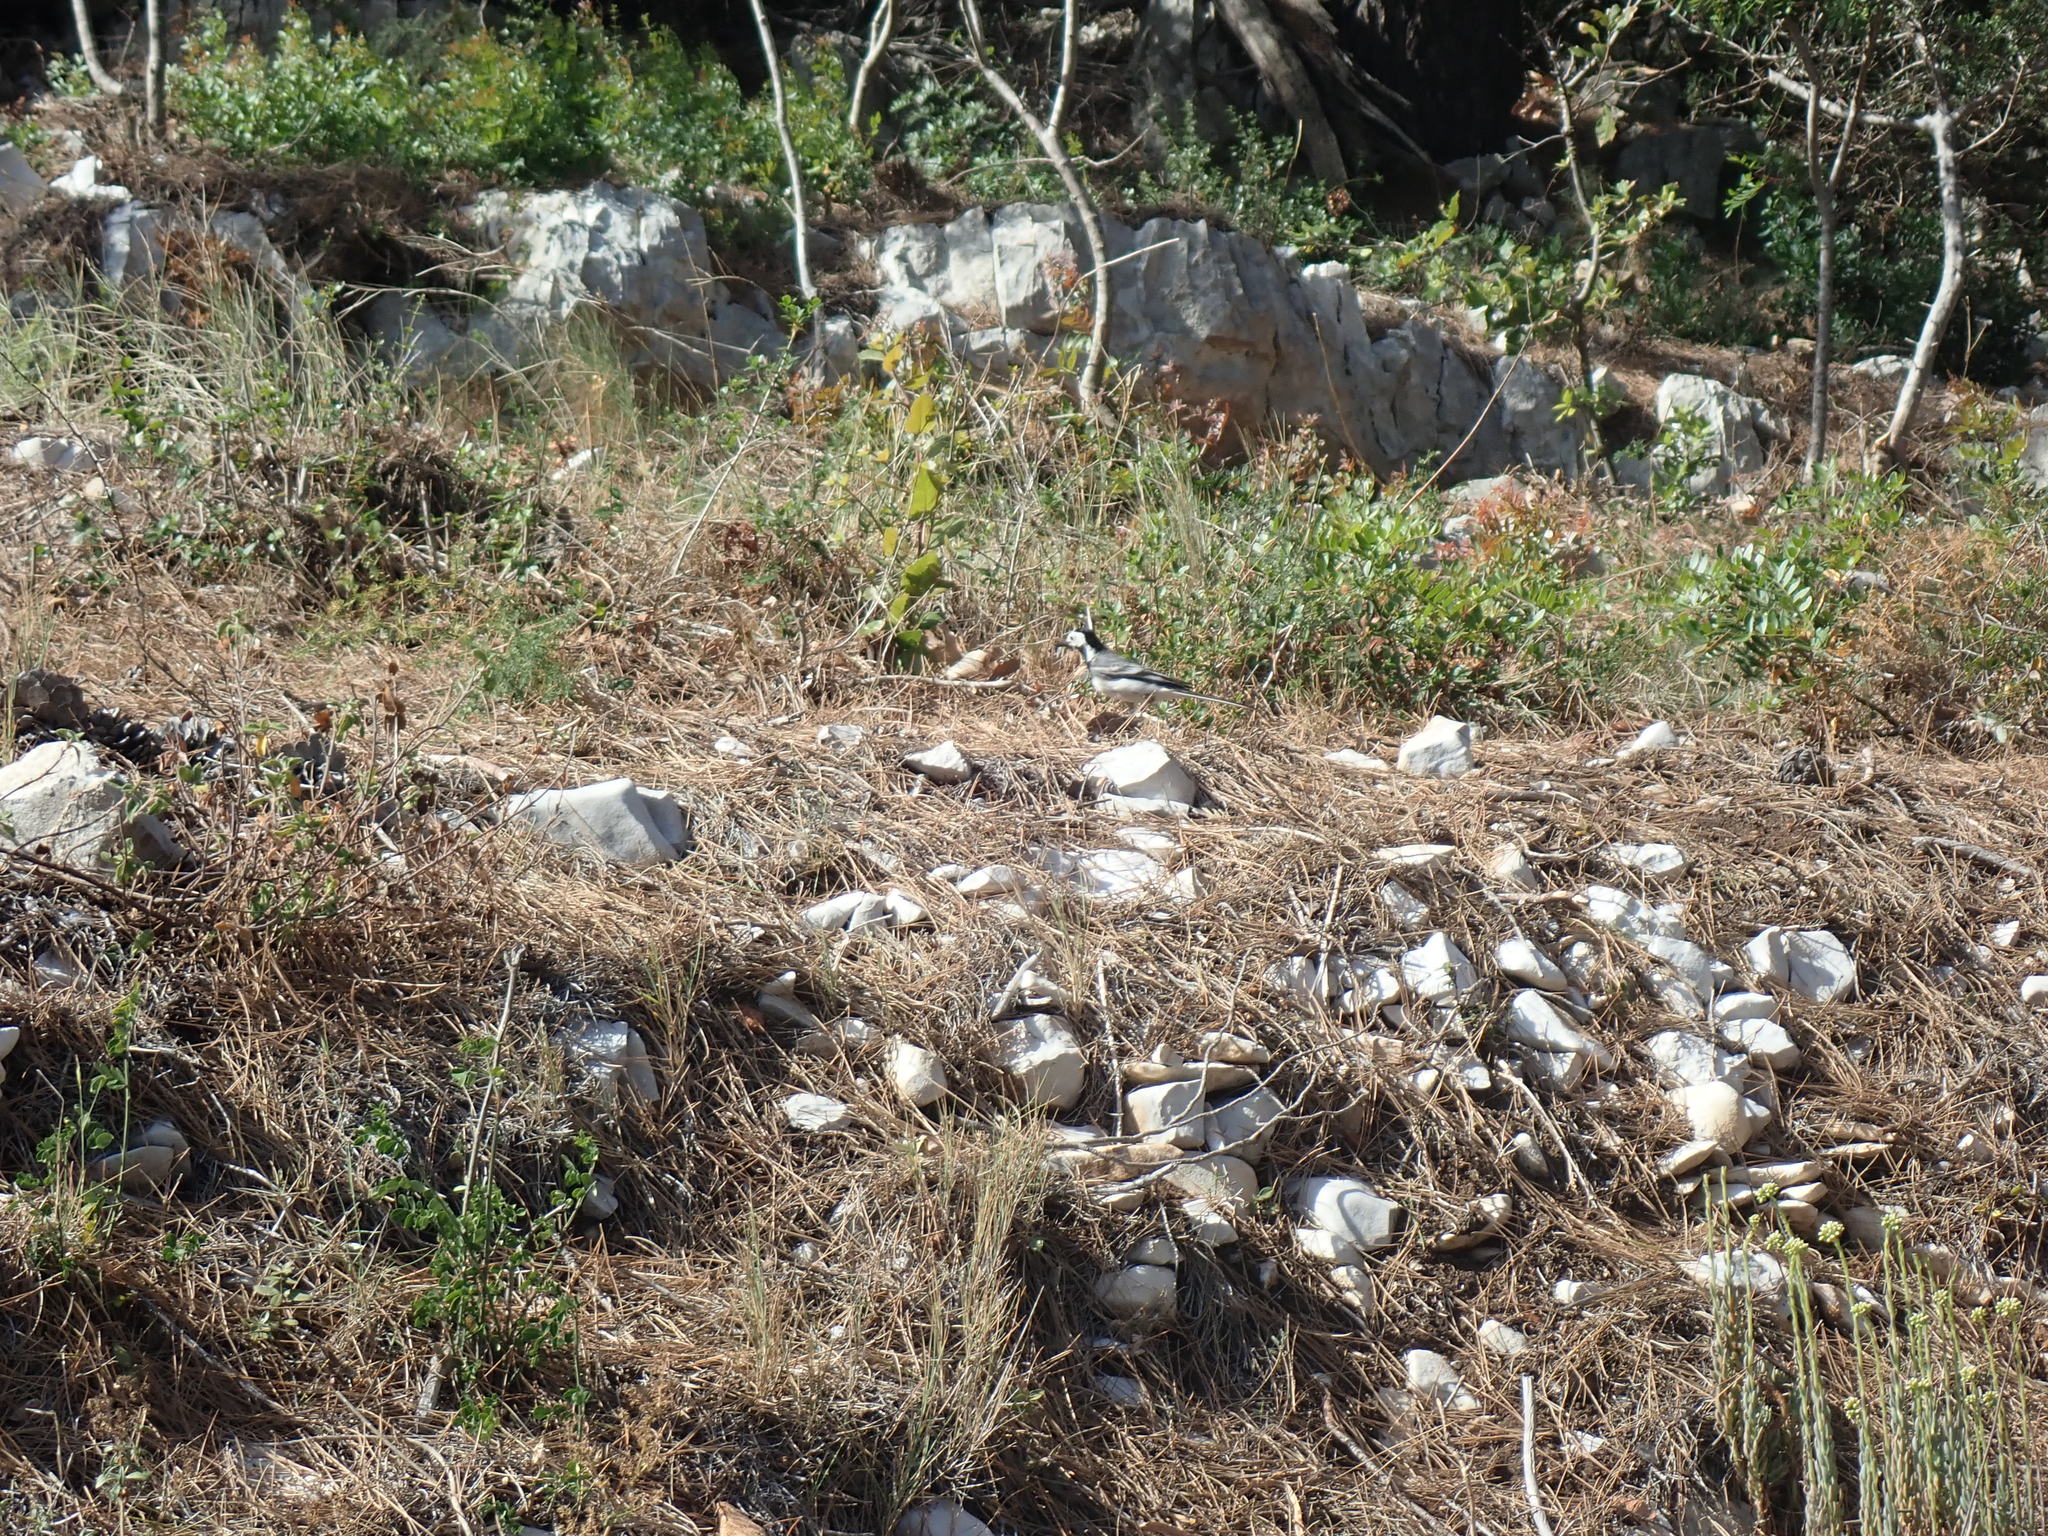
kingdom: Animalia
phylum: Chordata
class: Aves
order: Passeriformes
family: Motacillidae
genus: Motacilla
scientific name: Motacilla alba
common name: White wagtail
